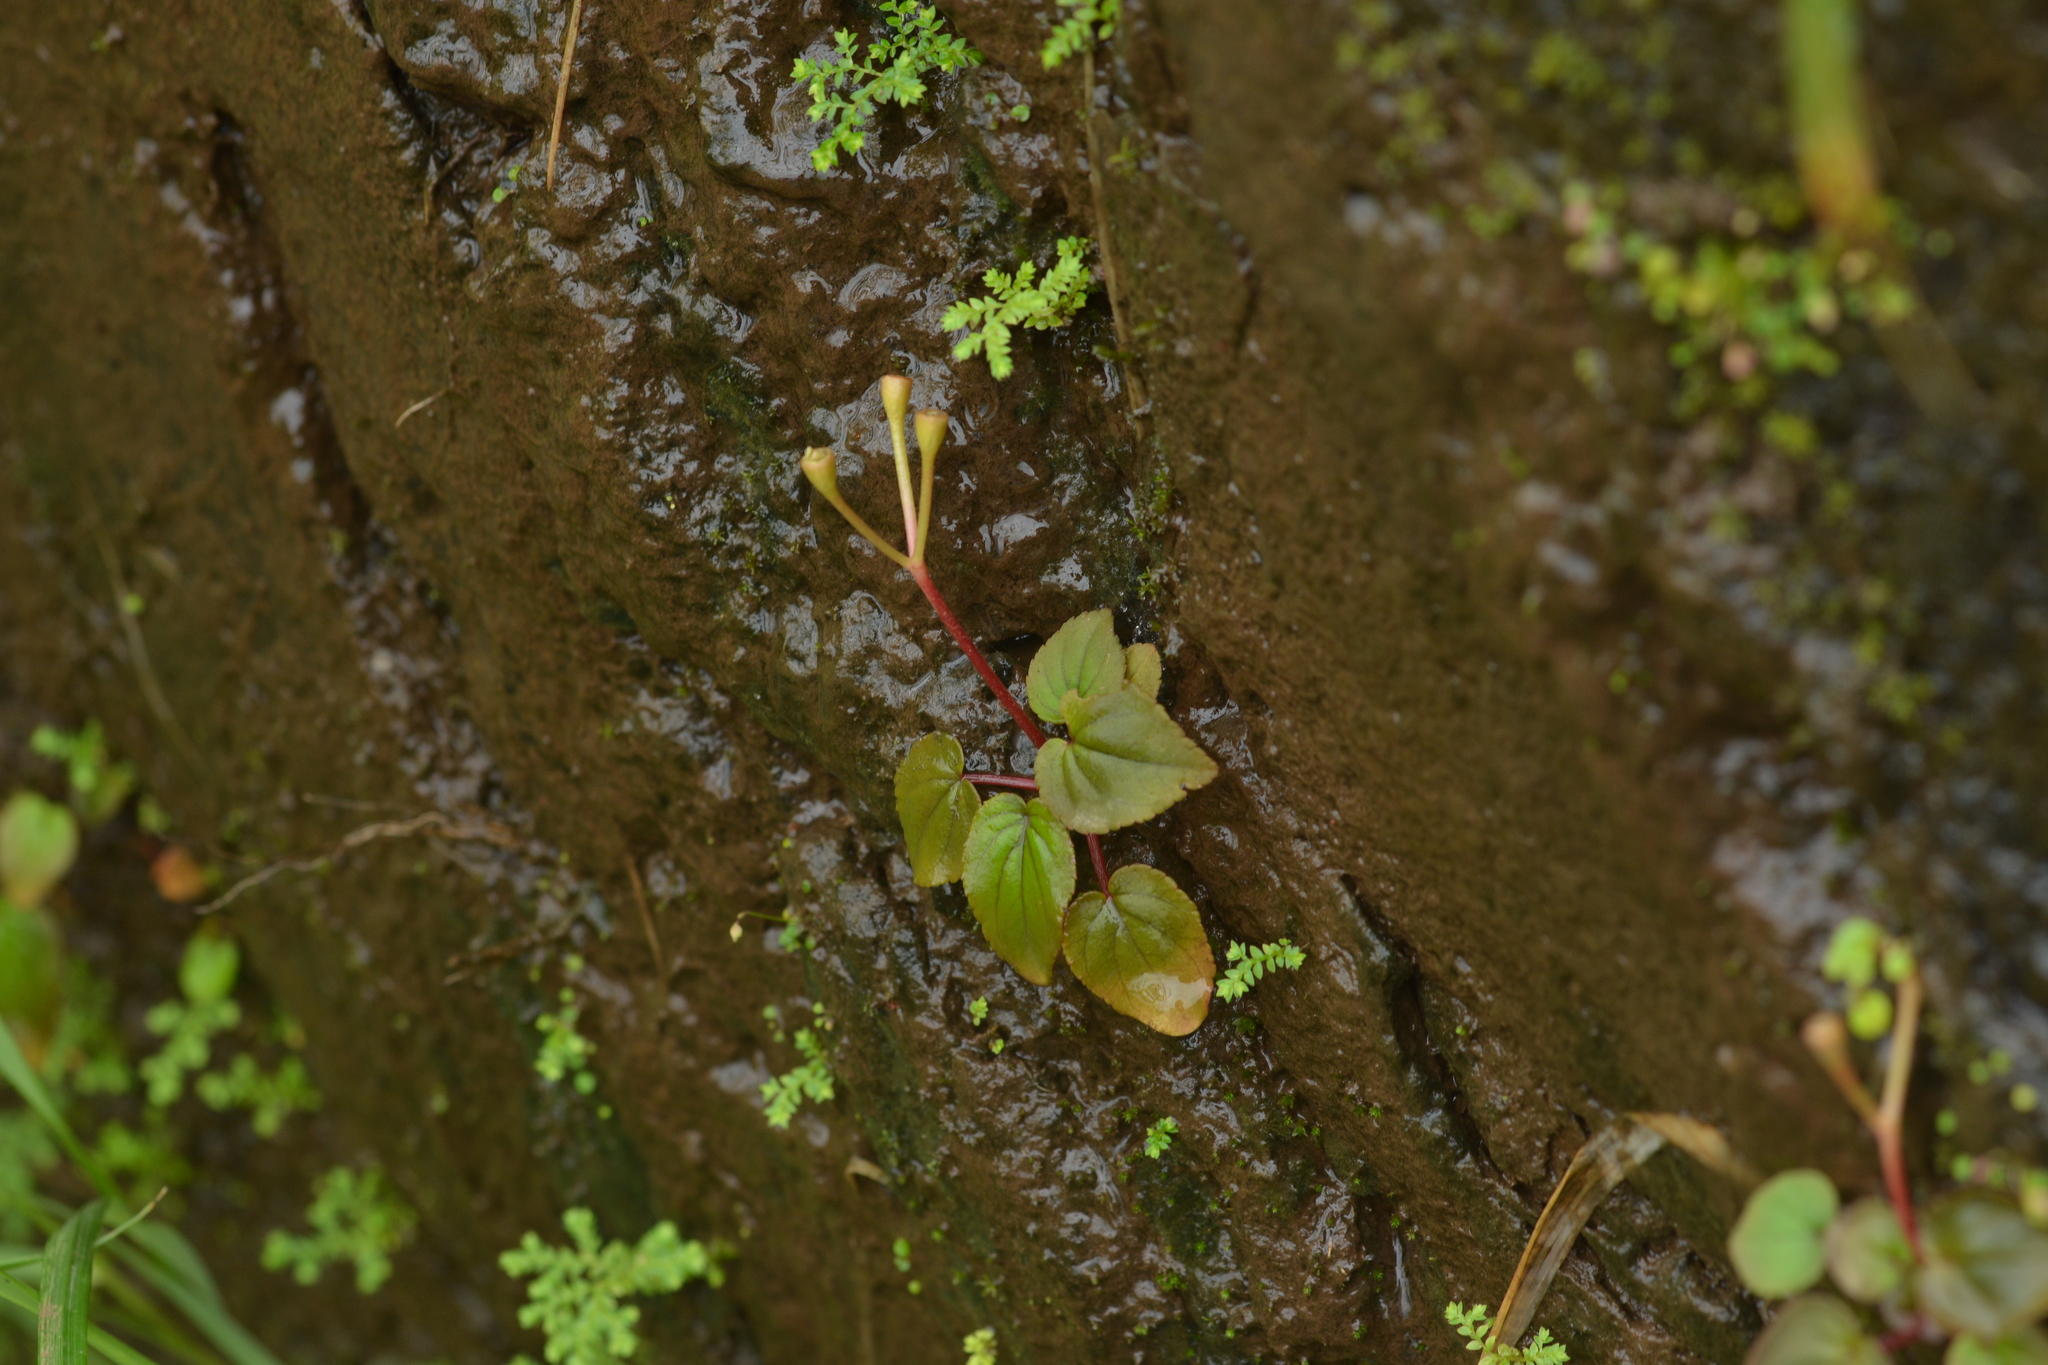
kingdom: Plantae
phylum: Tracheophyta
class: Magnoliopsida
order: Myrtales
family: Melastomataceae
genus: Sonerila
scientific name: Sonerila scapigera
